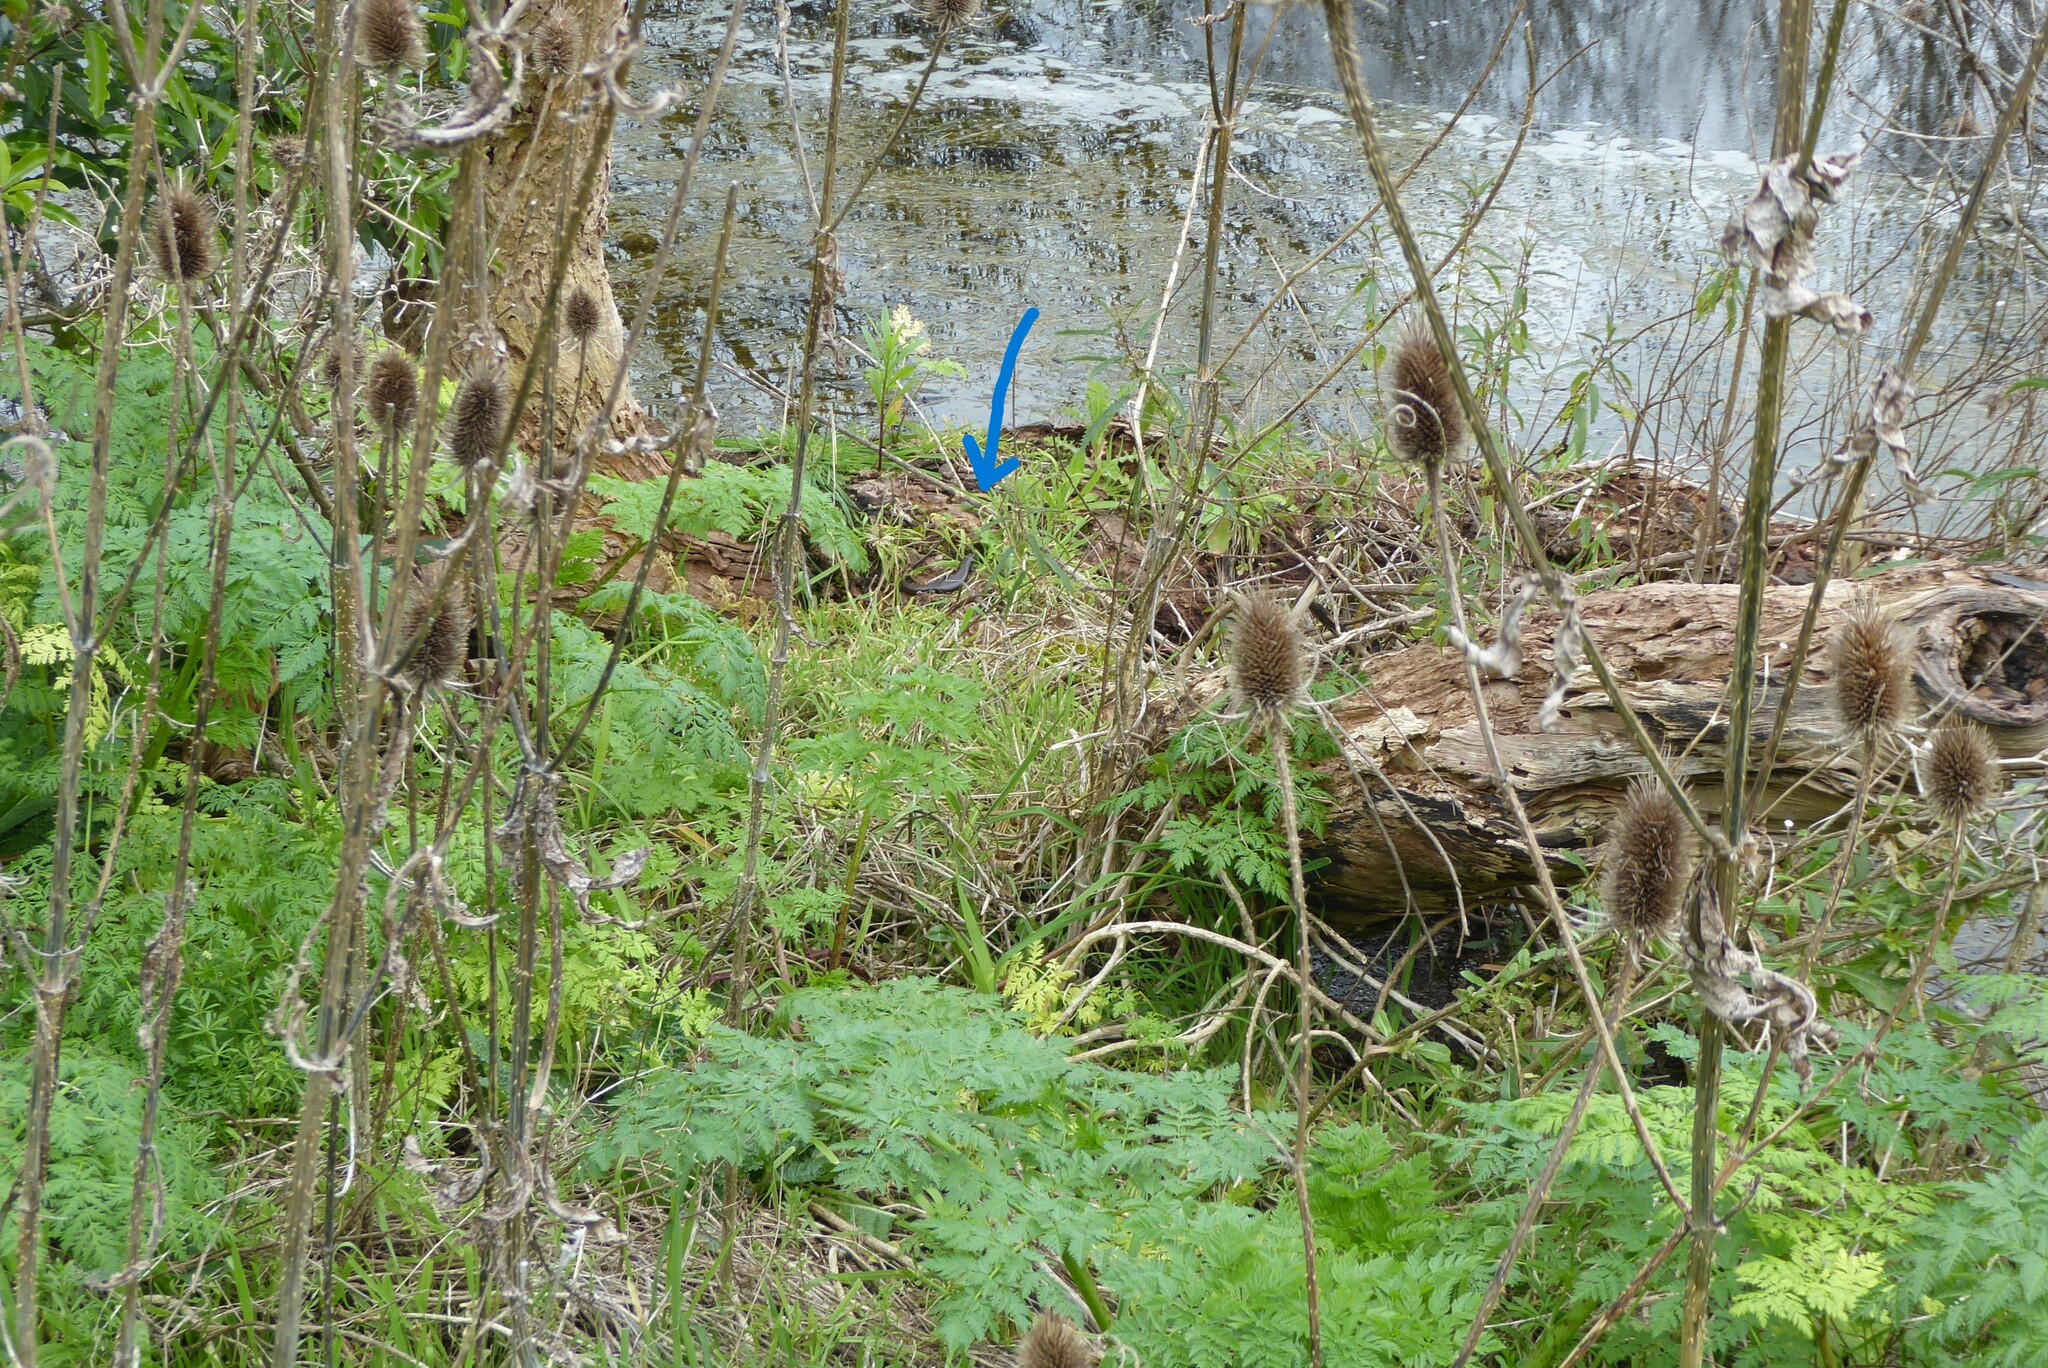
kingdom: Animalia
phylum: Chordata
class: Squamata
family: Scincidae
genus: Eulamprus
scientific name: Eulamprus tympanum
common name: Cool-temperate water-skink
